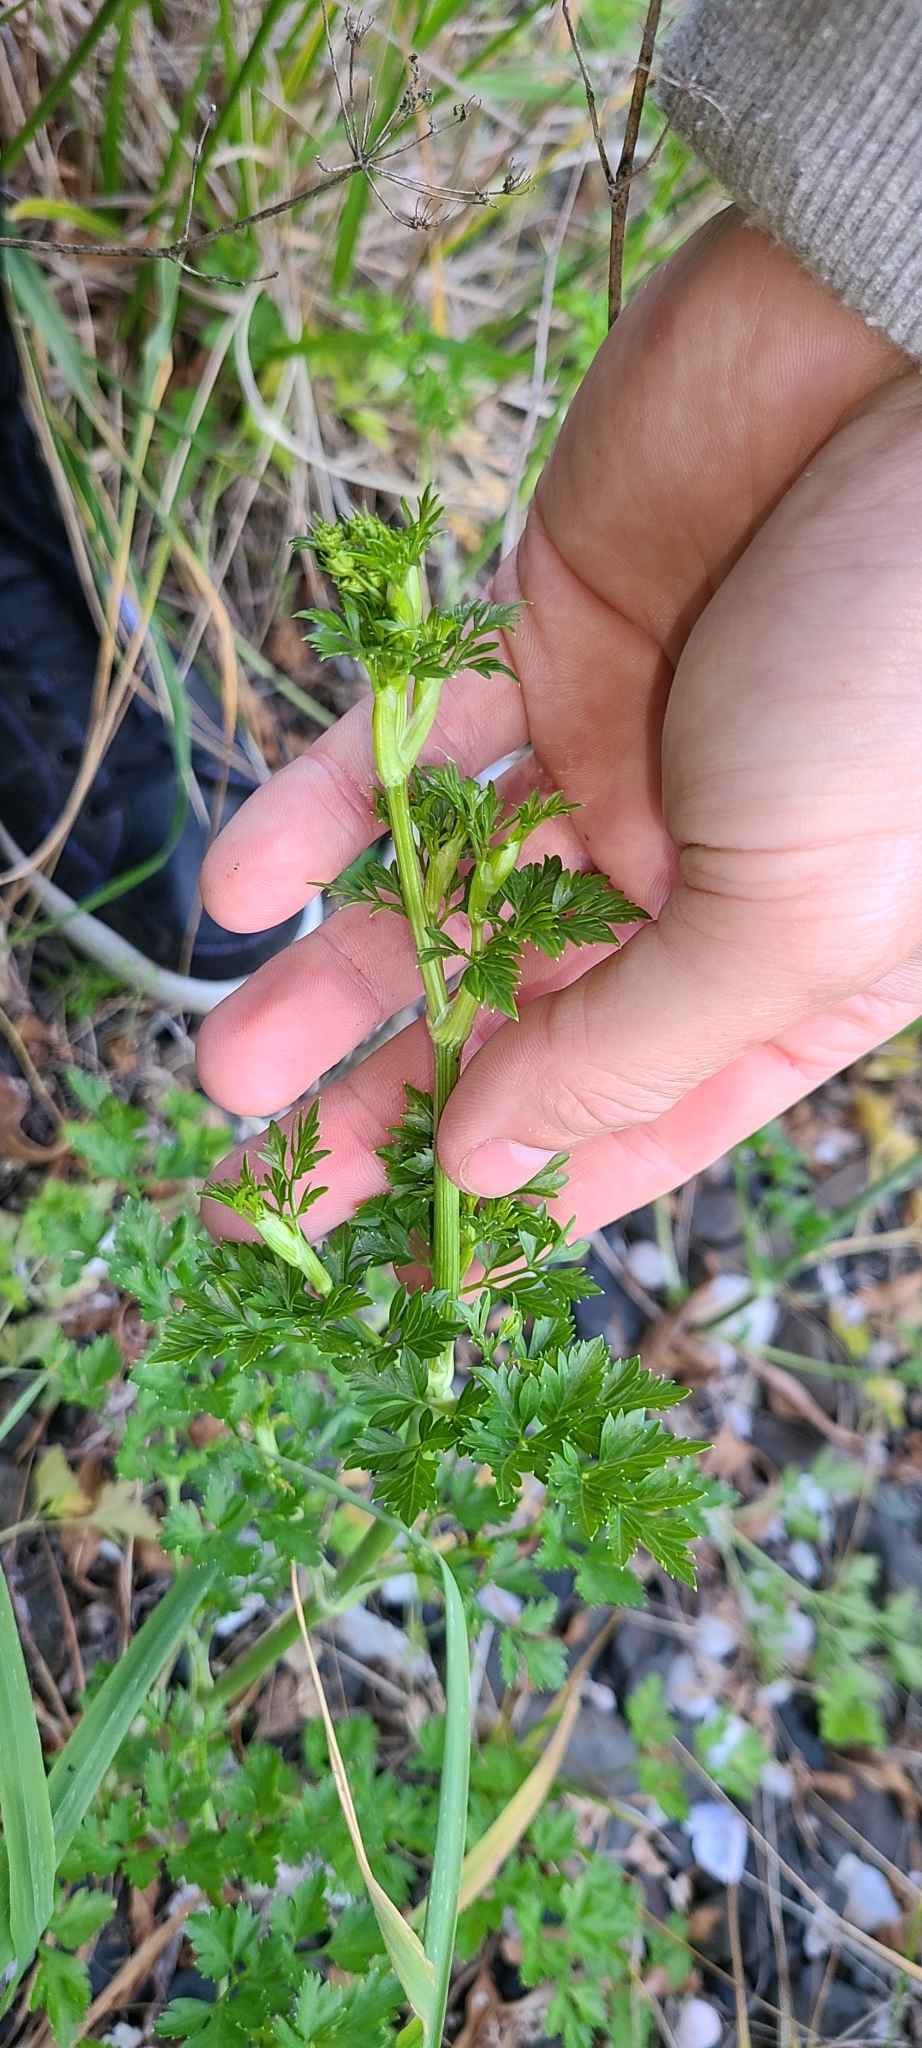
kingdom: Plantae
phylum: Tracheophyta
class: Magnoliopsida
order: Apiales
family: Apiaceae
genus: Petroselinum
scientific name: Petroselinum crispum
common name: Parsley
